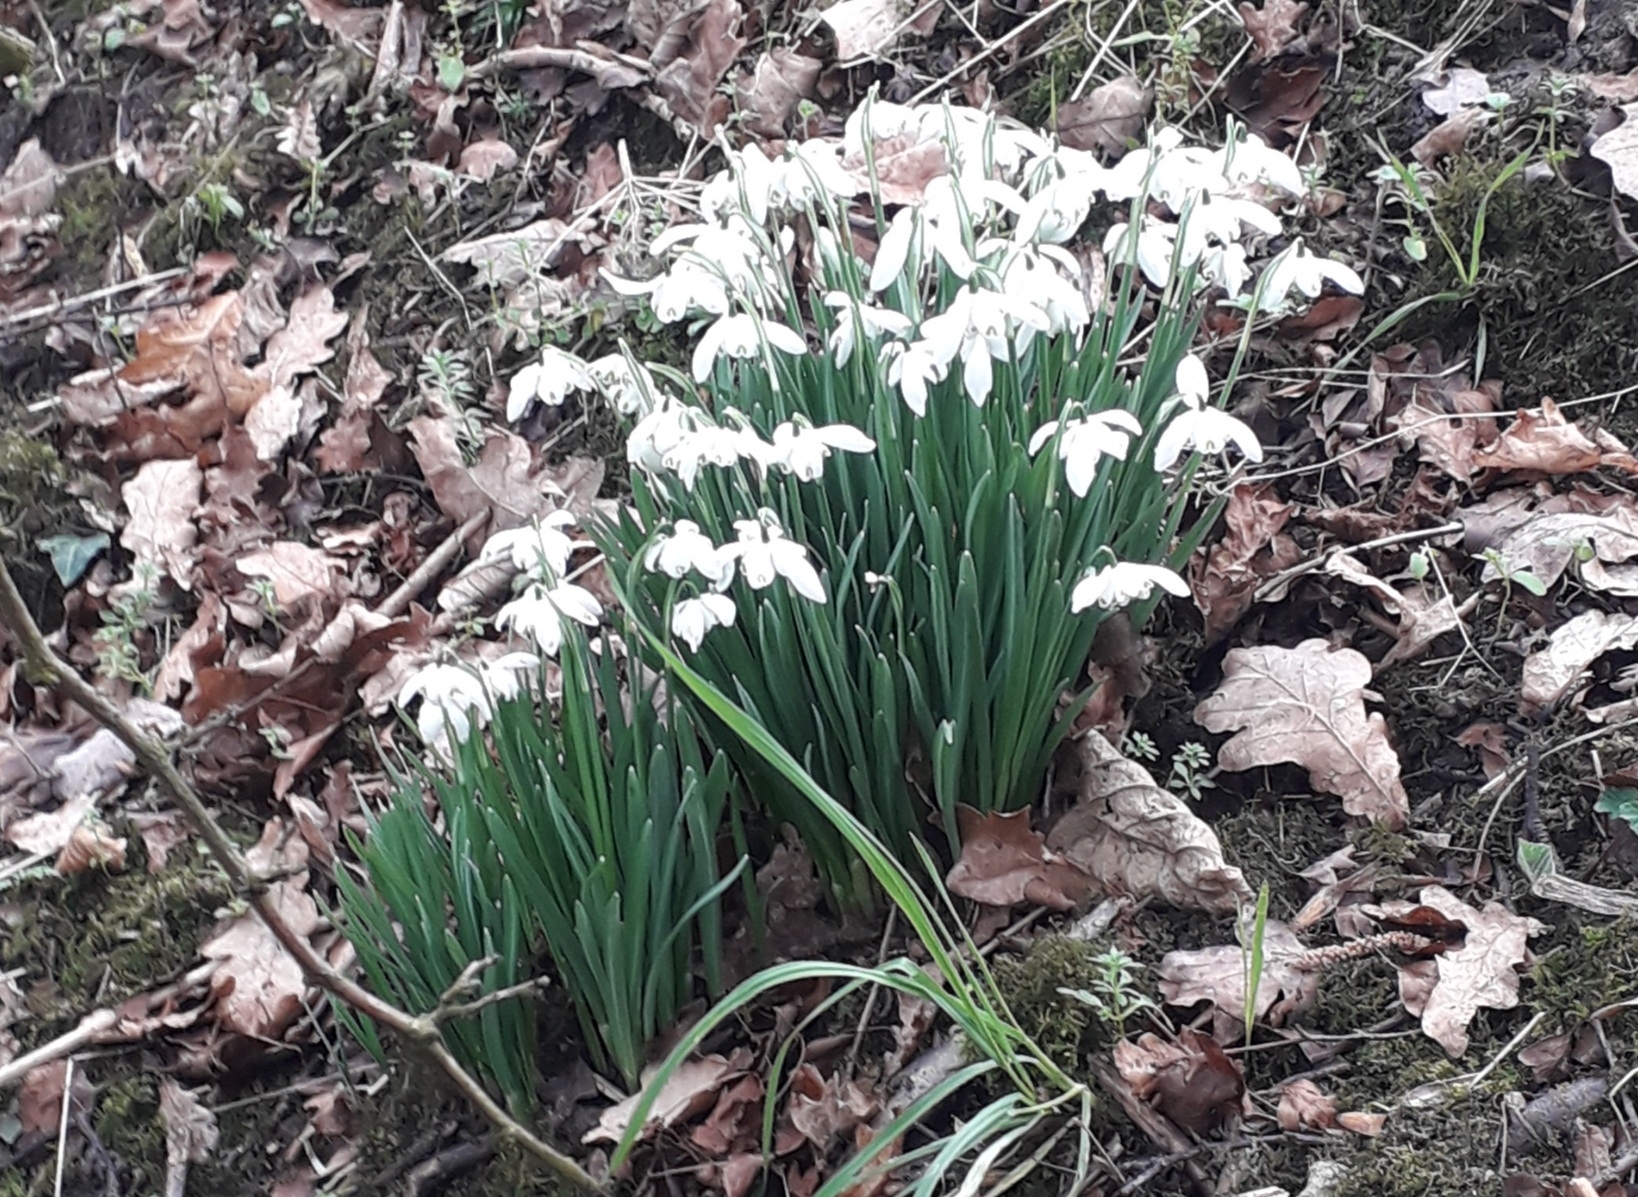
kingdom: Plantae
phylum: Tracheophyta
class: Liliopsida
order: Asparagales
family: Amaryllidaceae
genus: Galanthus
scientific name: Galanthus nivalis
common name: Snowdrop
